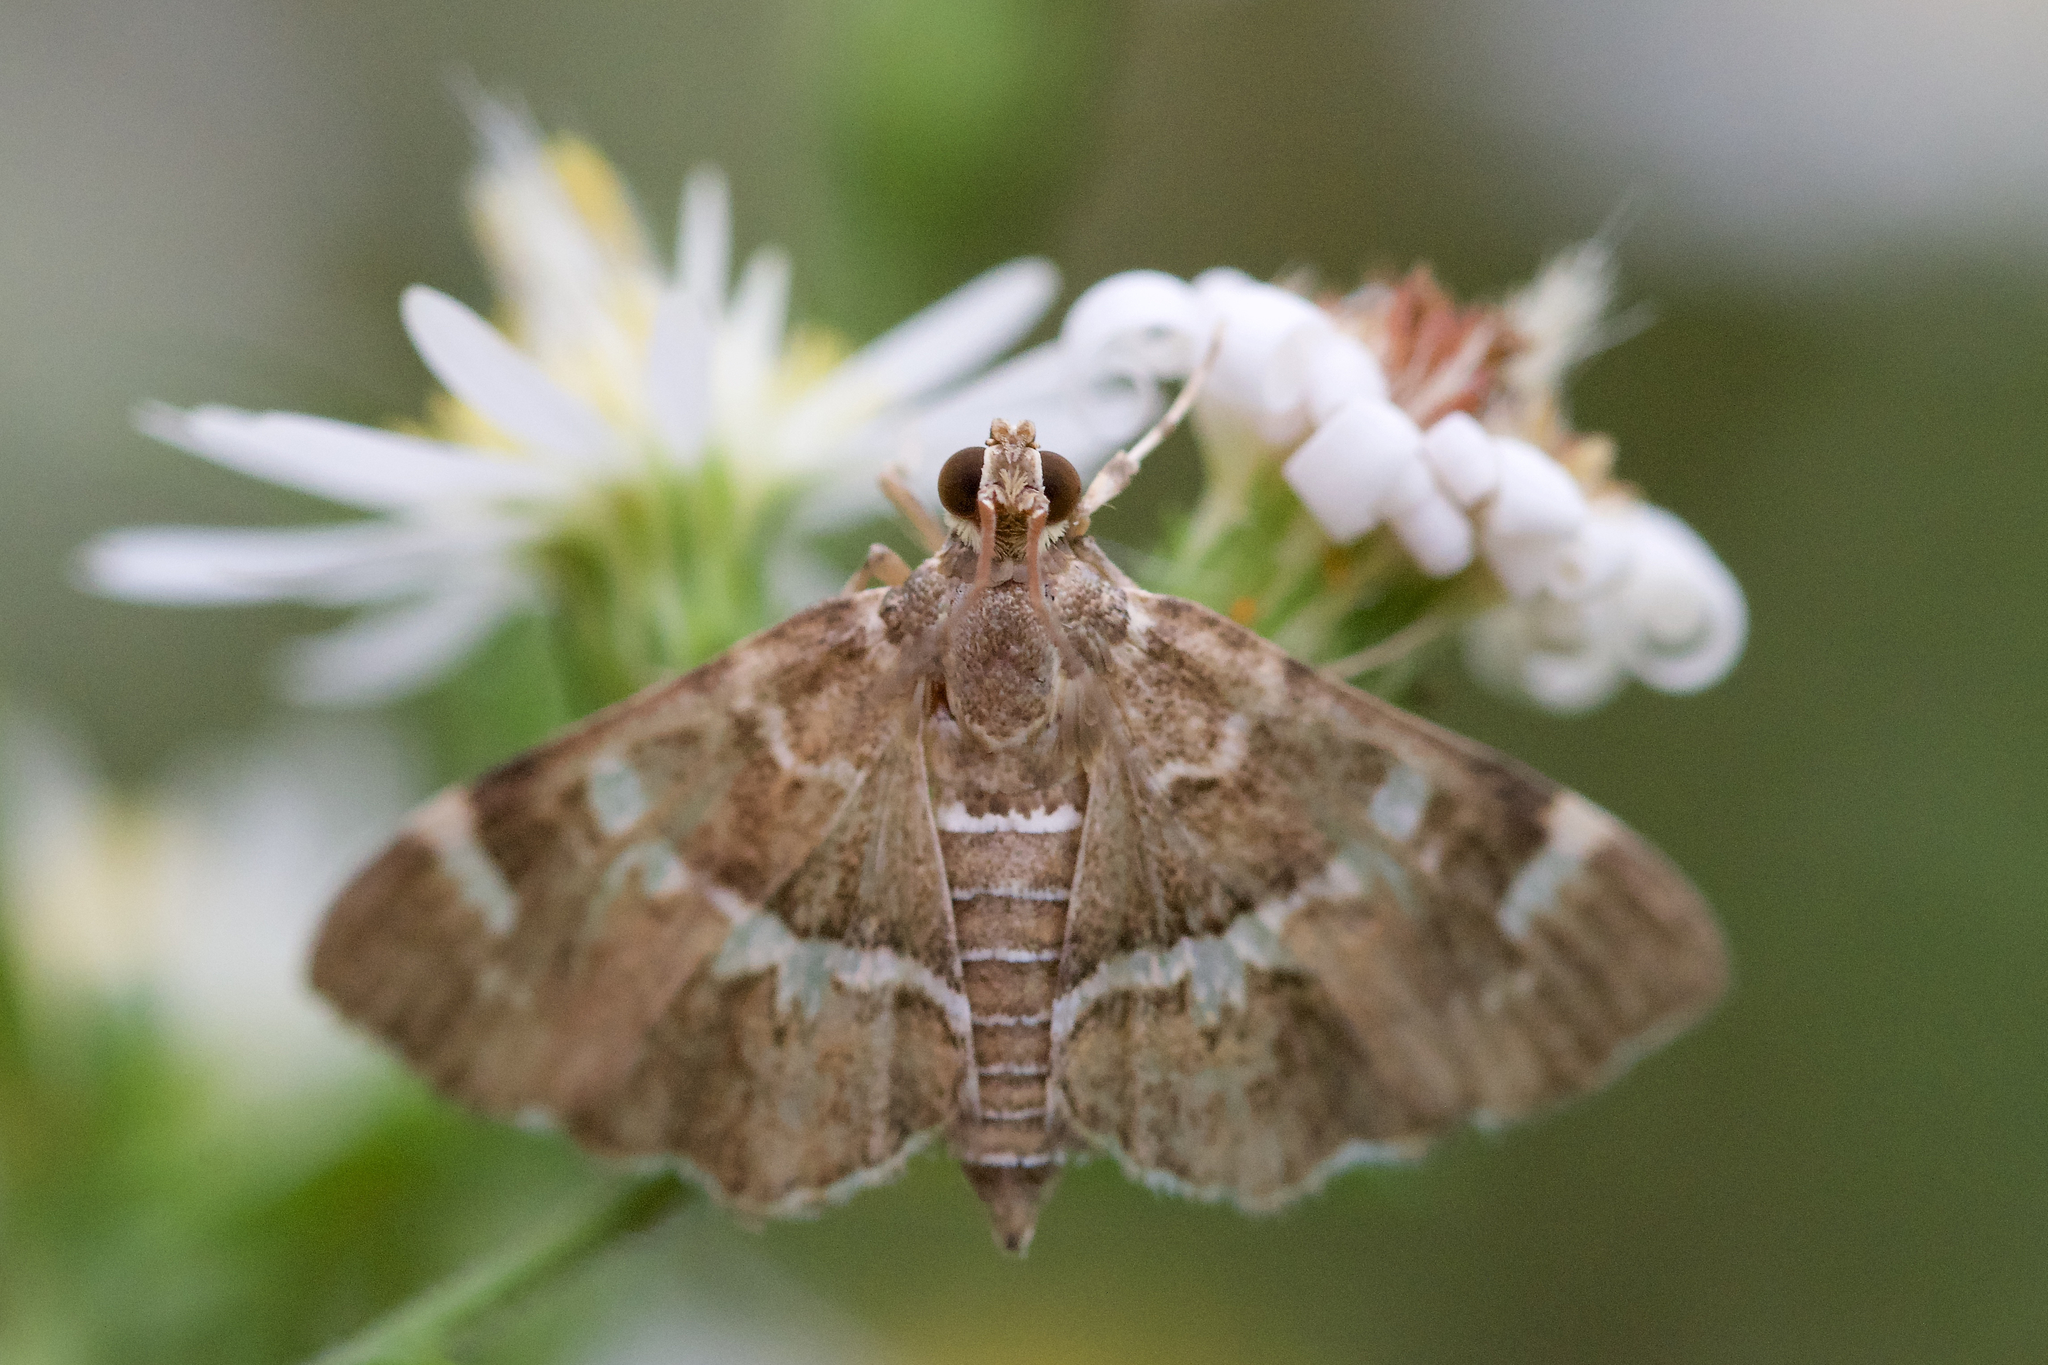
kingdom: Animalia
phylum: Arthropoda
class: Insecta
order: Lepidoptera
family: Crambidae
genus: Hymenia
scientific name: Hymenia perspectalis
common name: Spotted beet webworm
